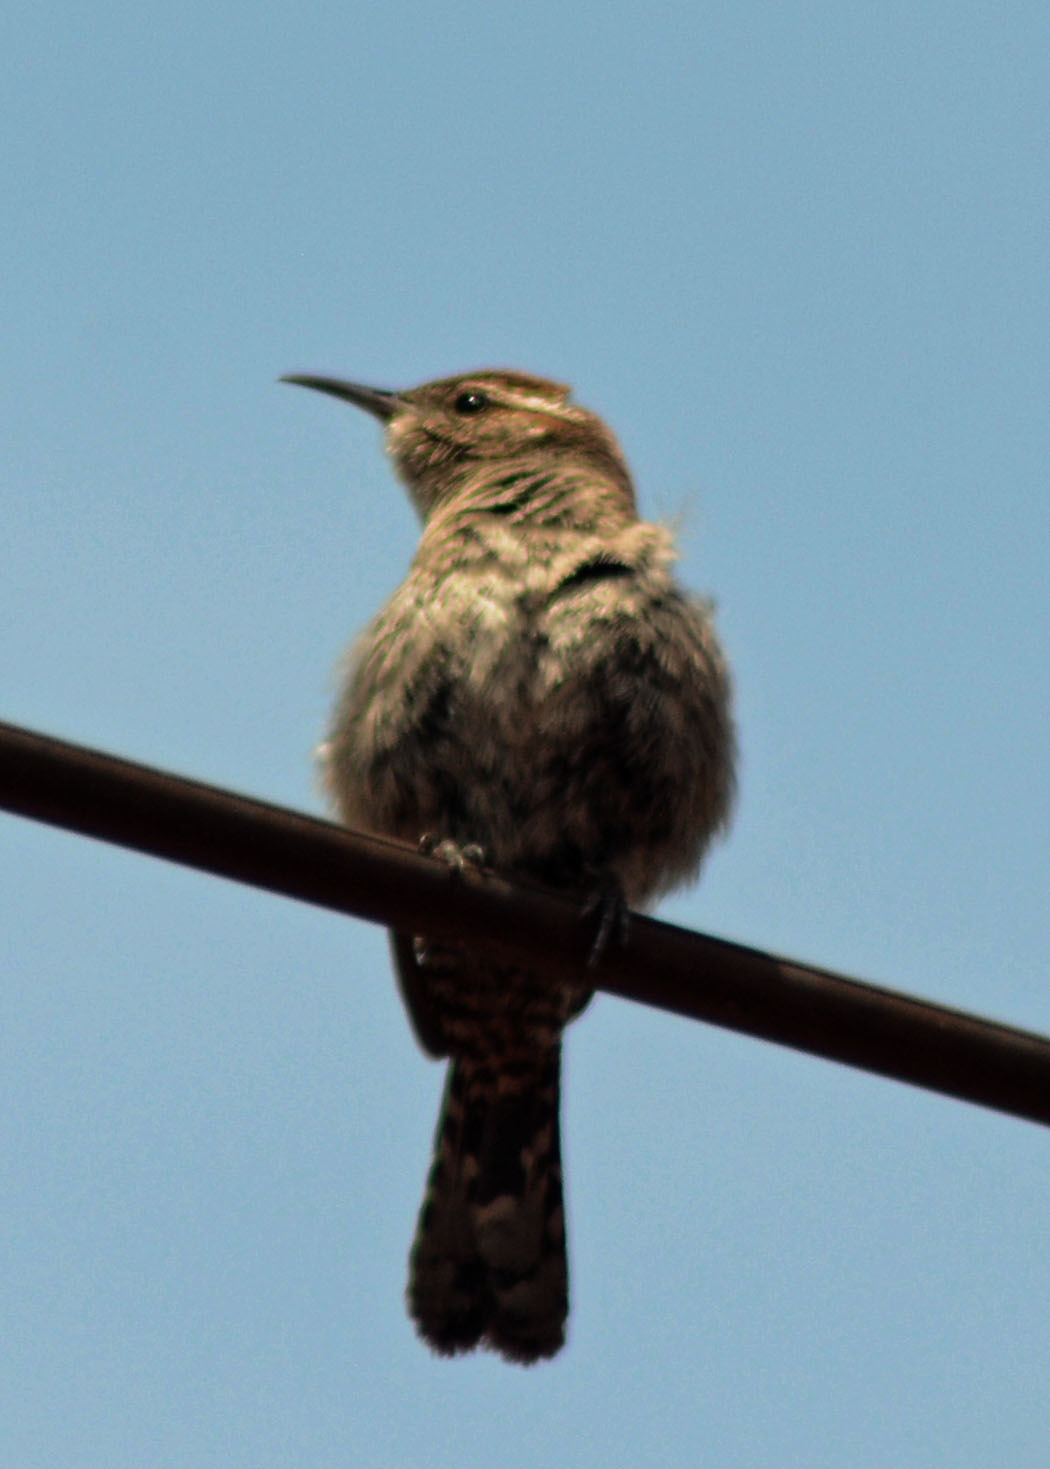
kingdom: Animalia
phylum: Chordata
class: Aves
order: Passeriformes
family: Troglodytidae
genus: Thryomanes
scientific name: Thryomanes bewickii
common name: Bewick's wren
